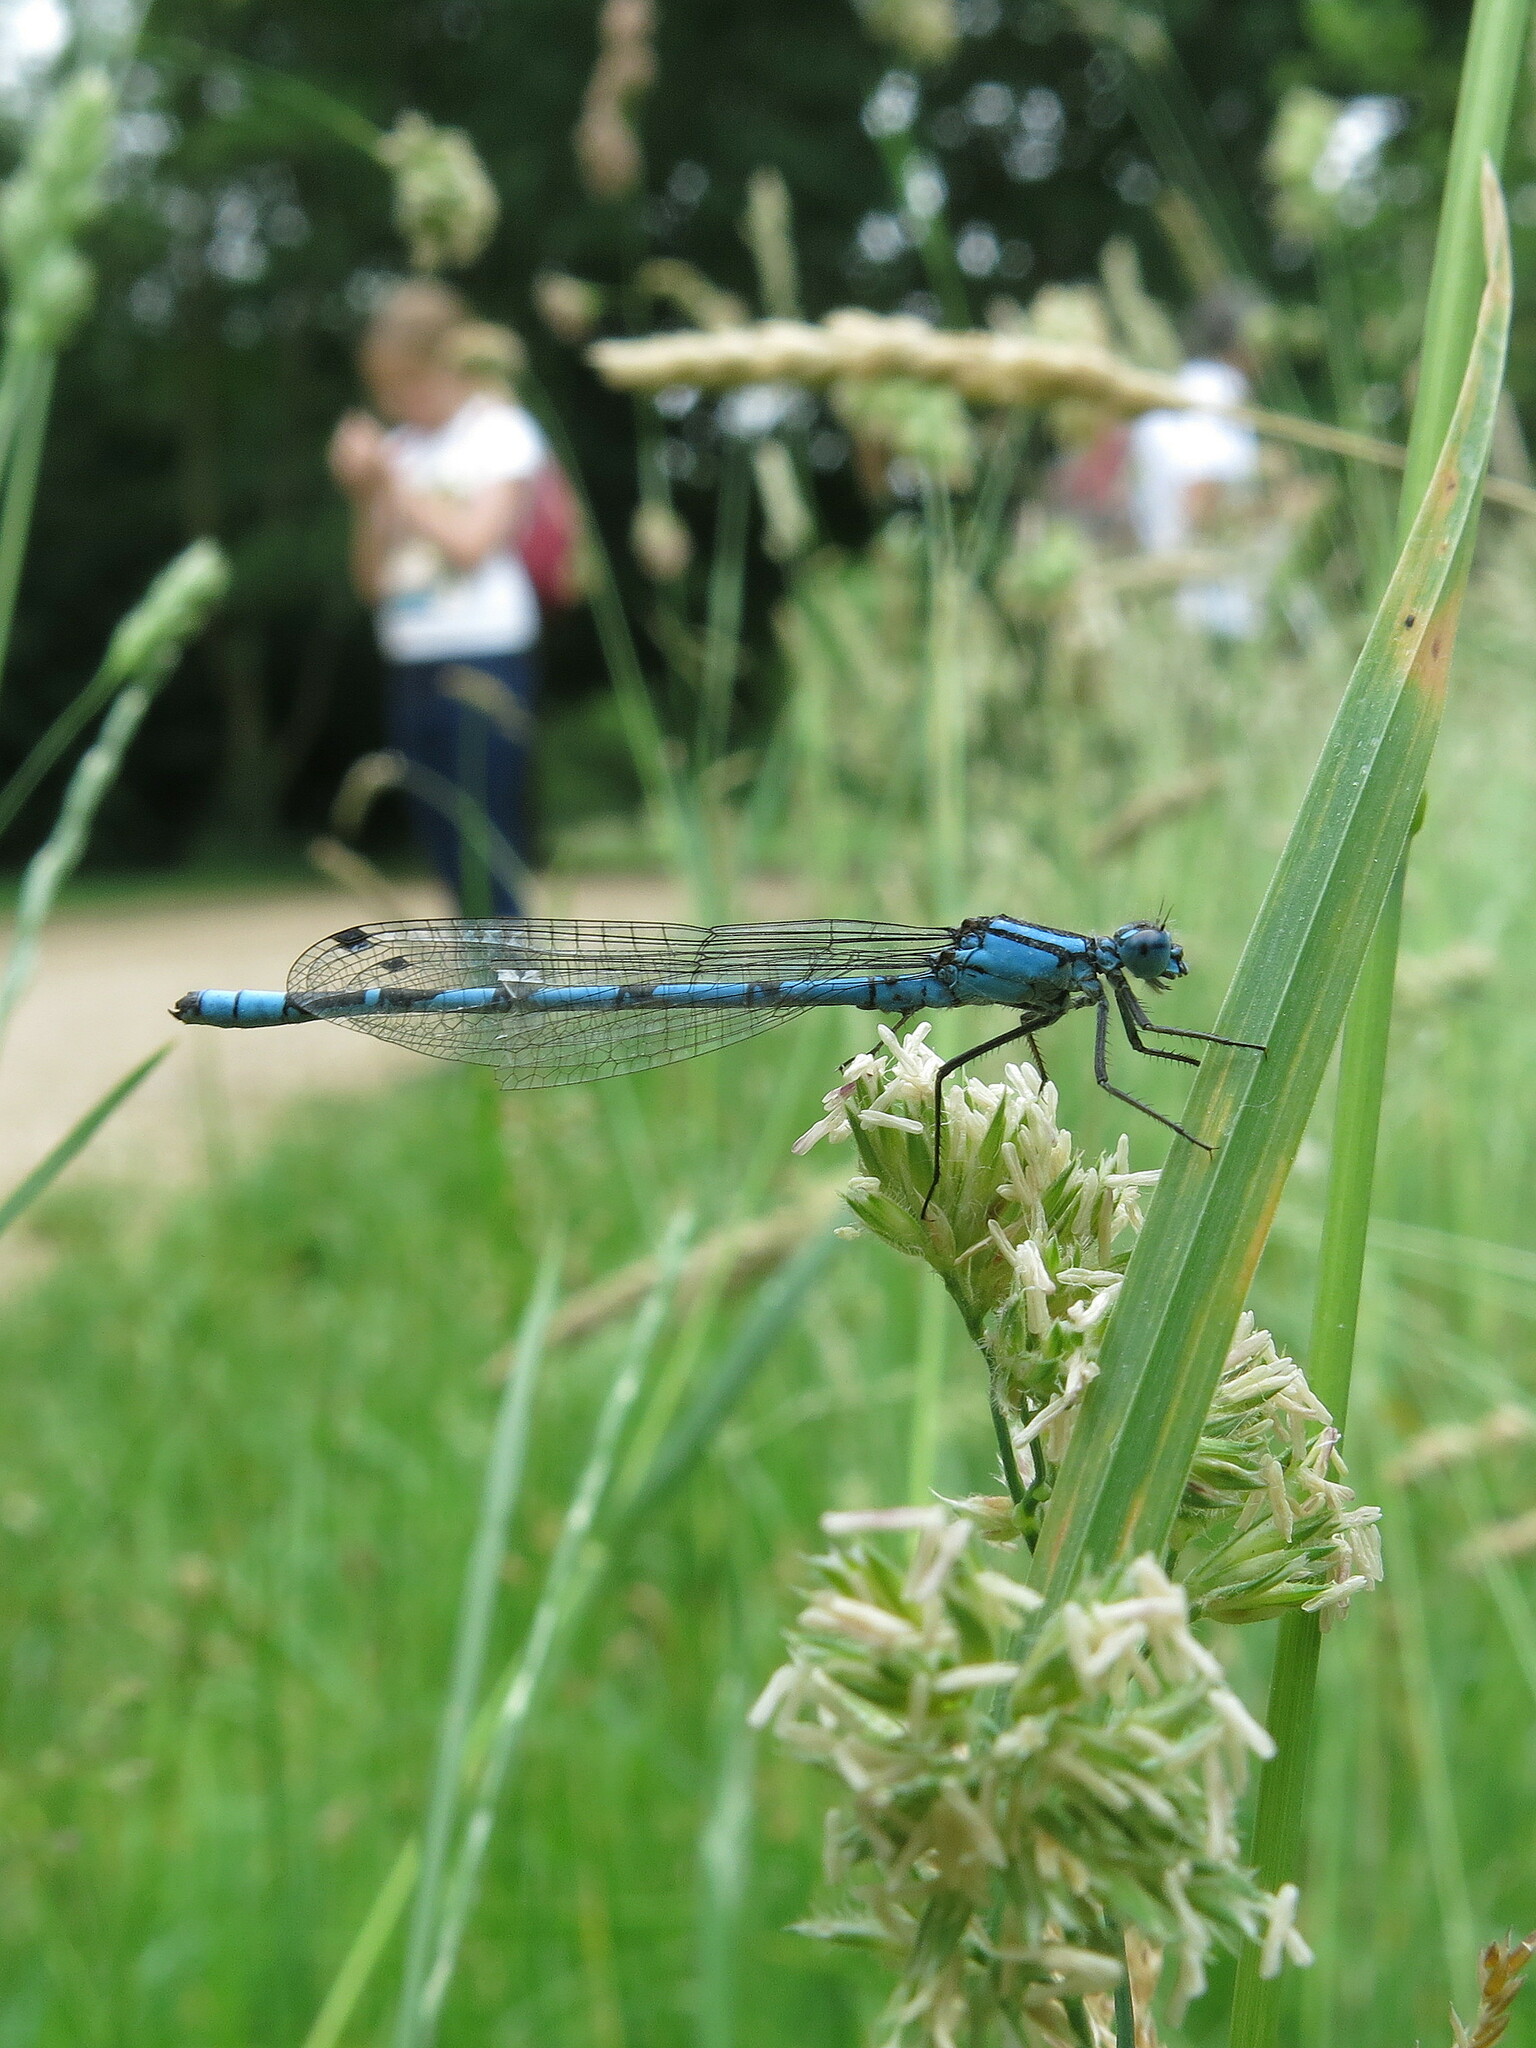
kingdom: Animalia
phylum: Arthropoda
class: Insecta
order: Odonata
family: Coenagrionidae
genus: Enallagma
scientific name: Enallagma cyathigerum
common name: Common blue damselfly
